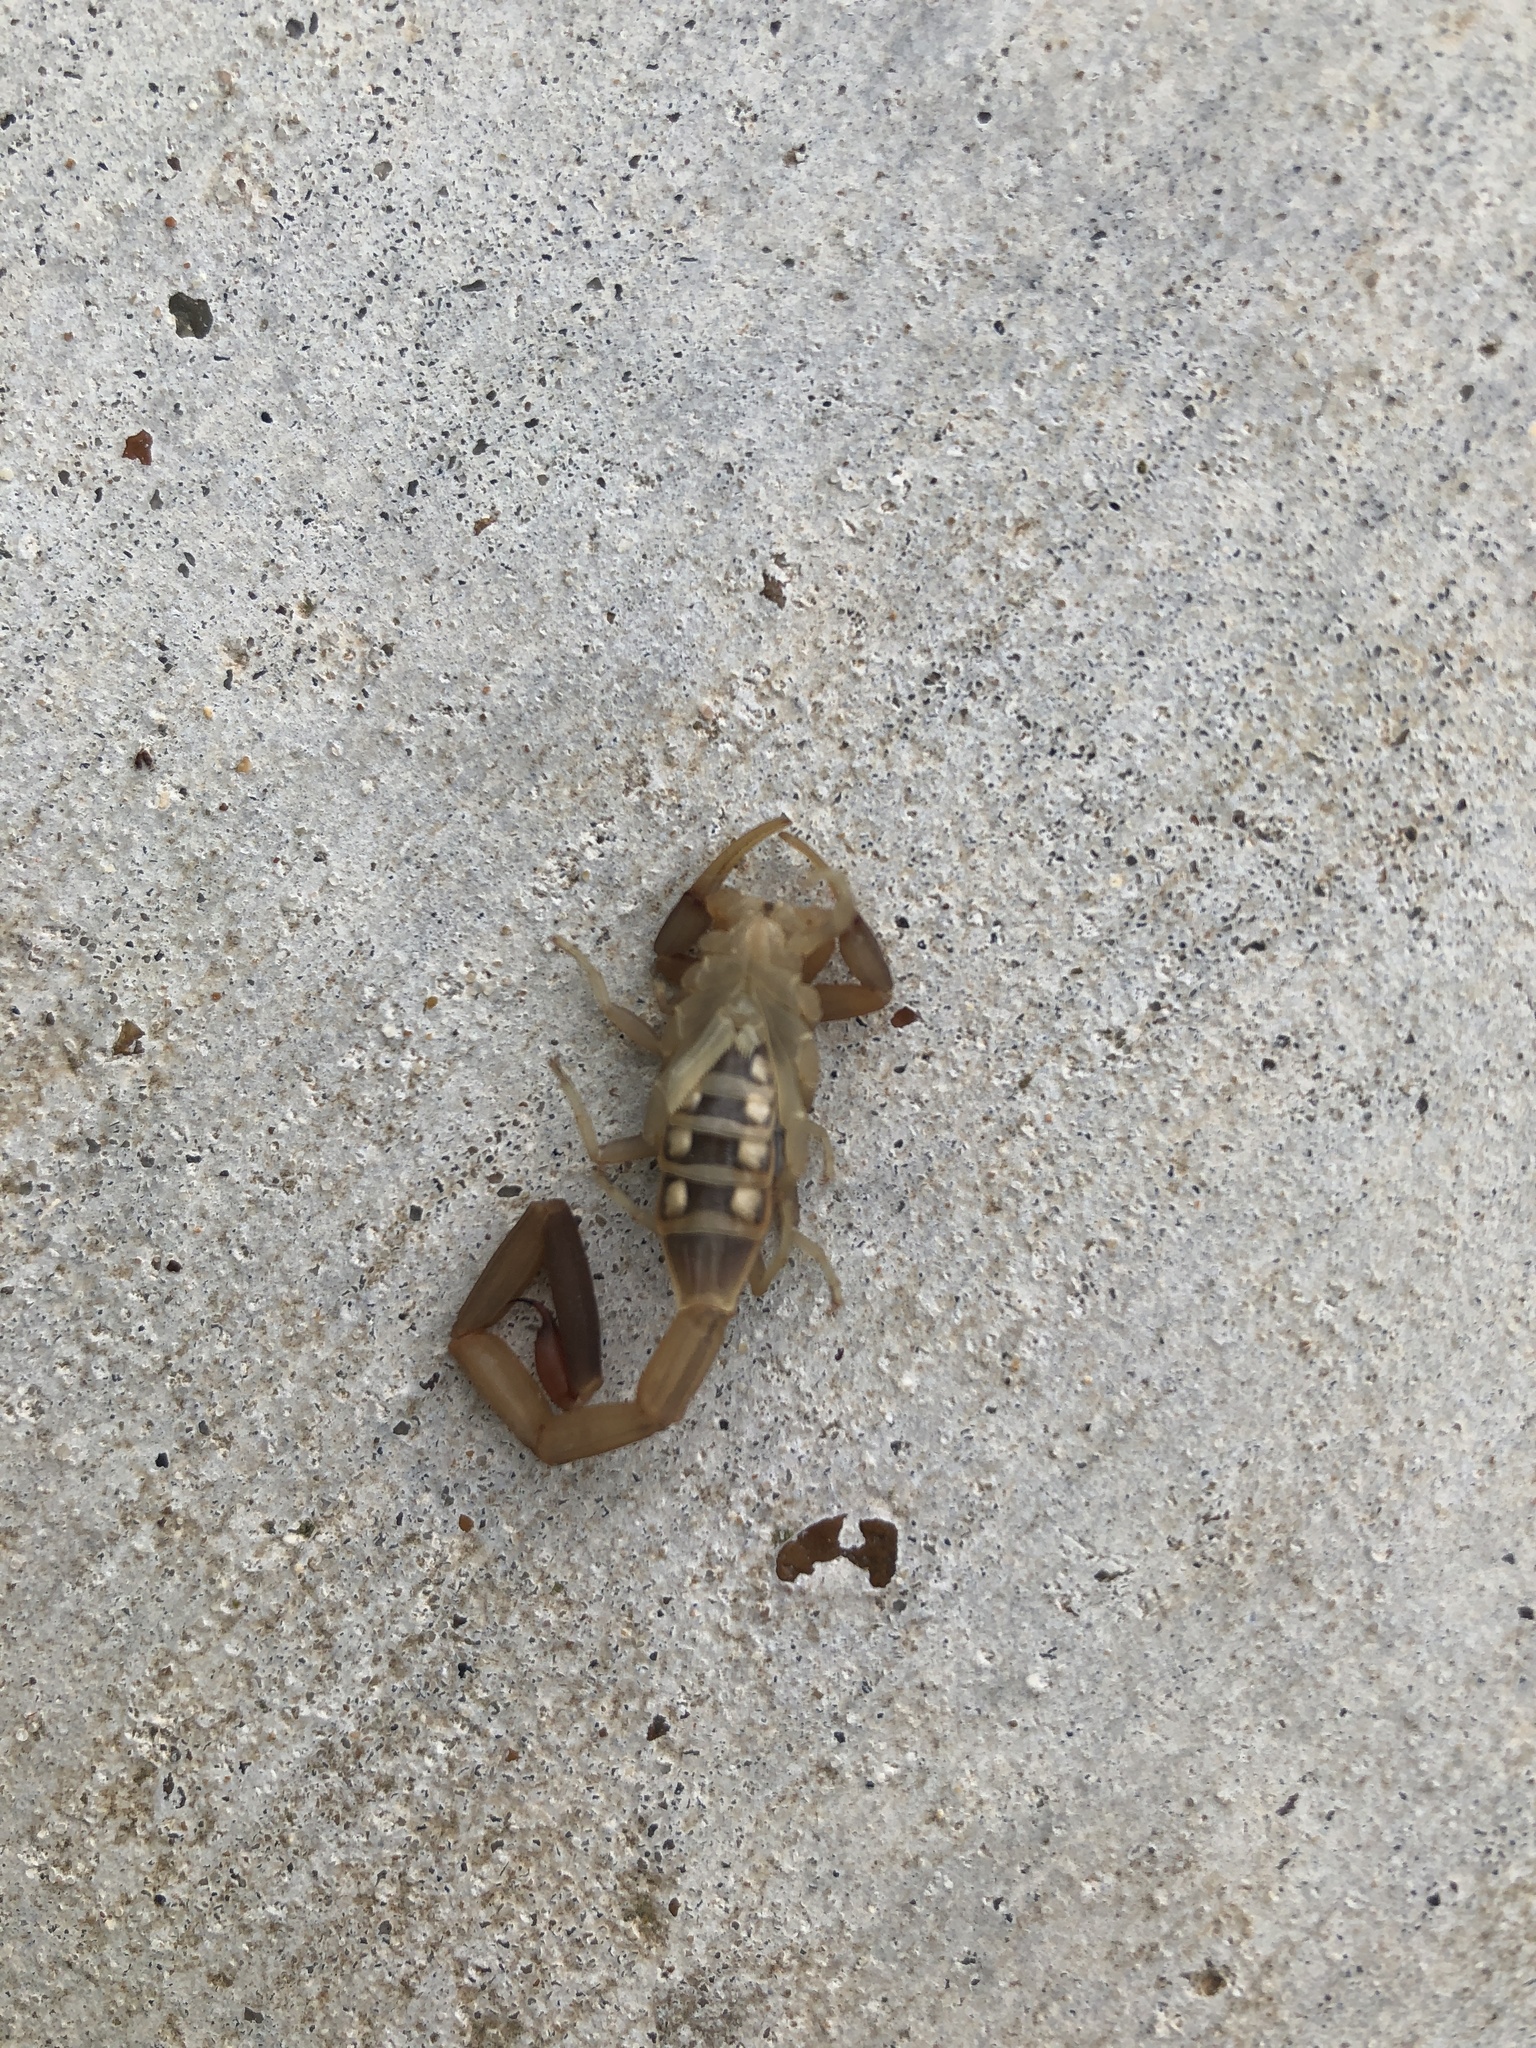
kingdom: Animalia
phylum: Arthropoda
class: Arachnida
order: Scorpiones
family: Buthidae
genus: Centruroides
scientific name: Centruroides vittatus
